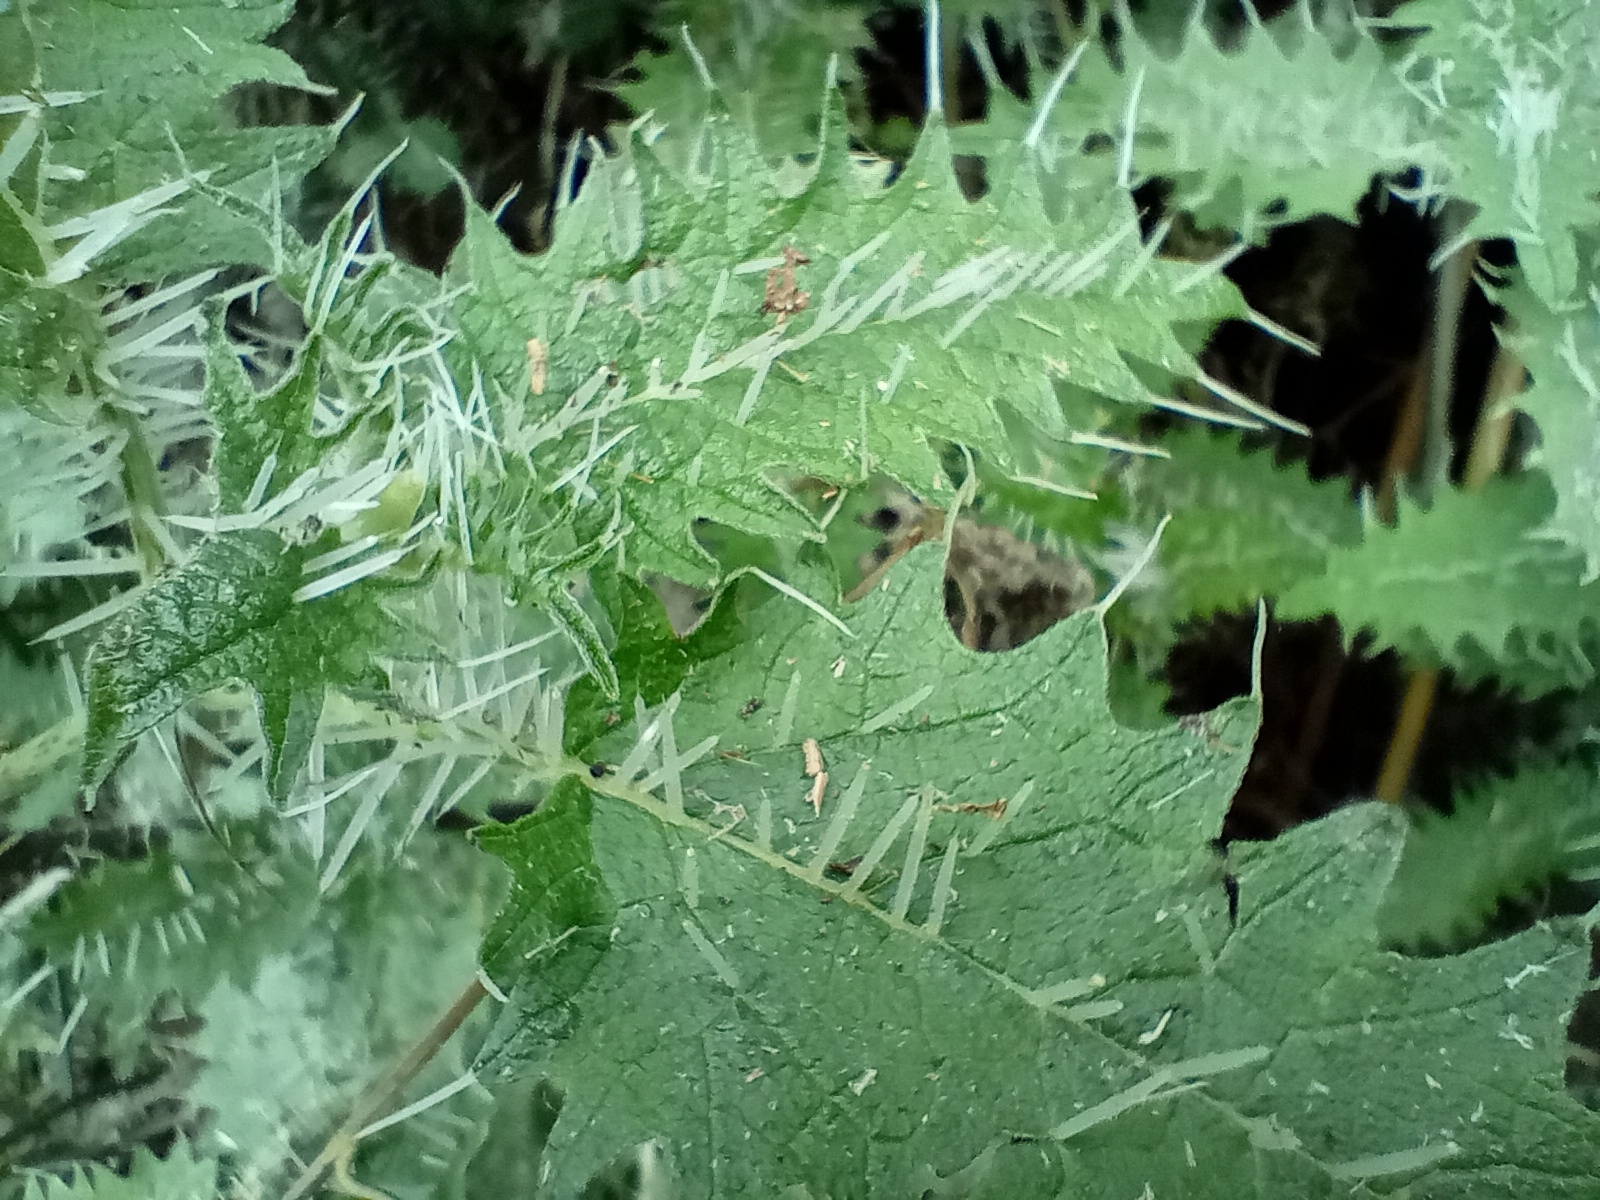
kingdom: Plantae
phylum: Tracheophyta
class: Magnoliopsida
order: Rosales
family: Urticaceae
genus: Urtica
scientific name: Urtica ferox
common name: Tree nettle
